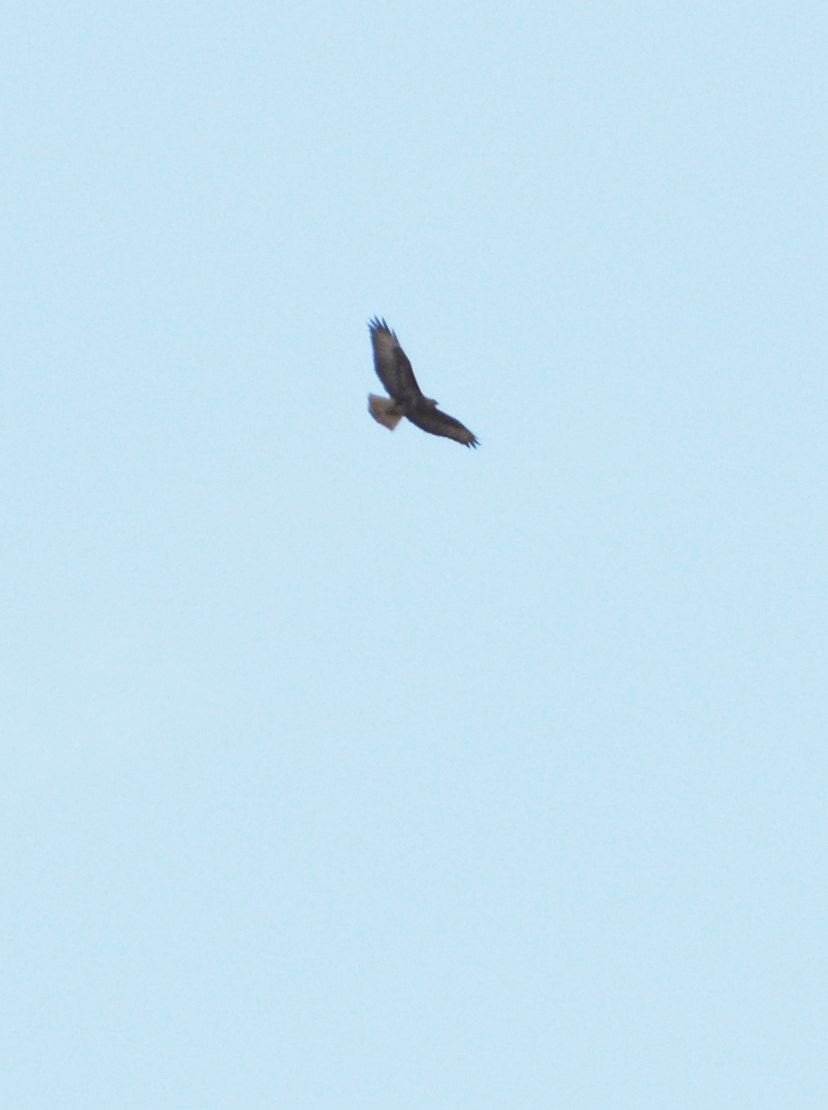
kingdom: Animalia
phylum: Chordata
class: Aves
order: Accipitriformes
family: Accipitridae
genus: Buteo
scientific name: Buteo buteo
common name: Common buzzard
